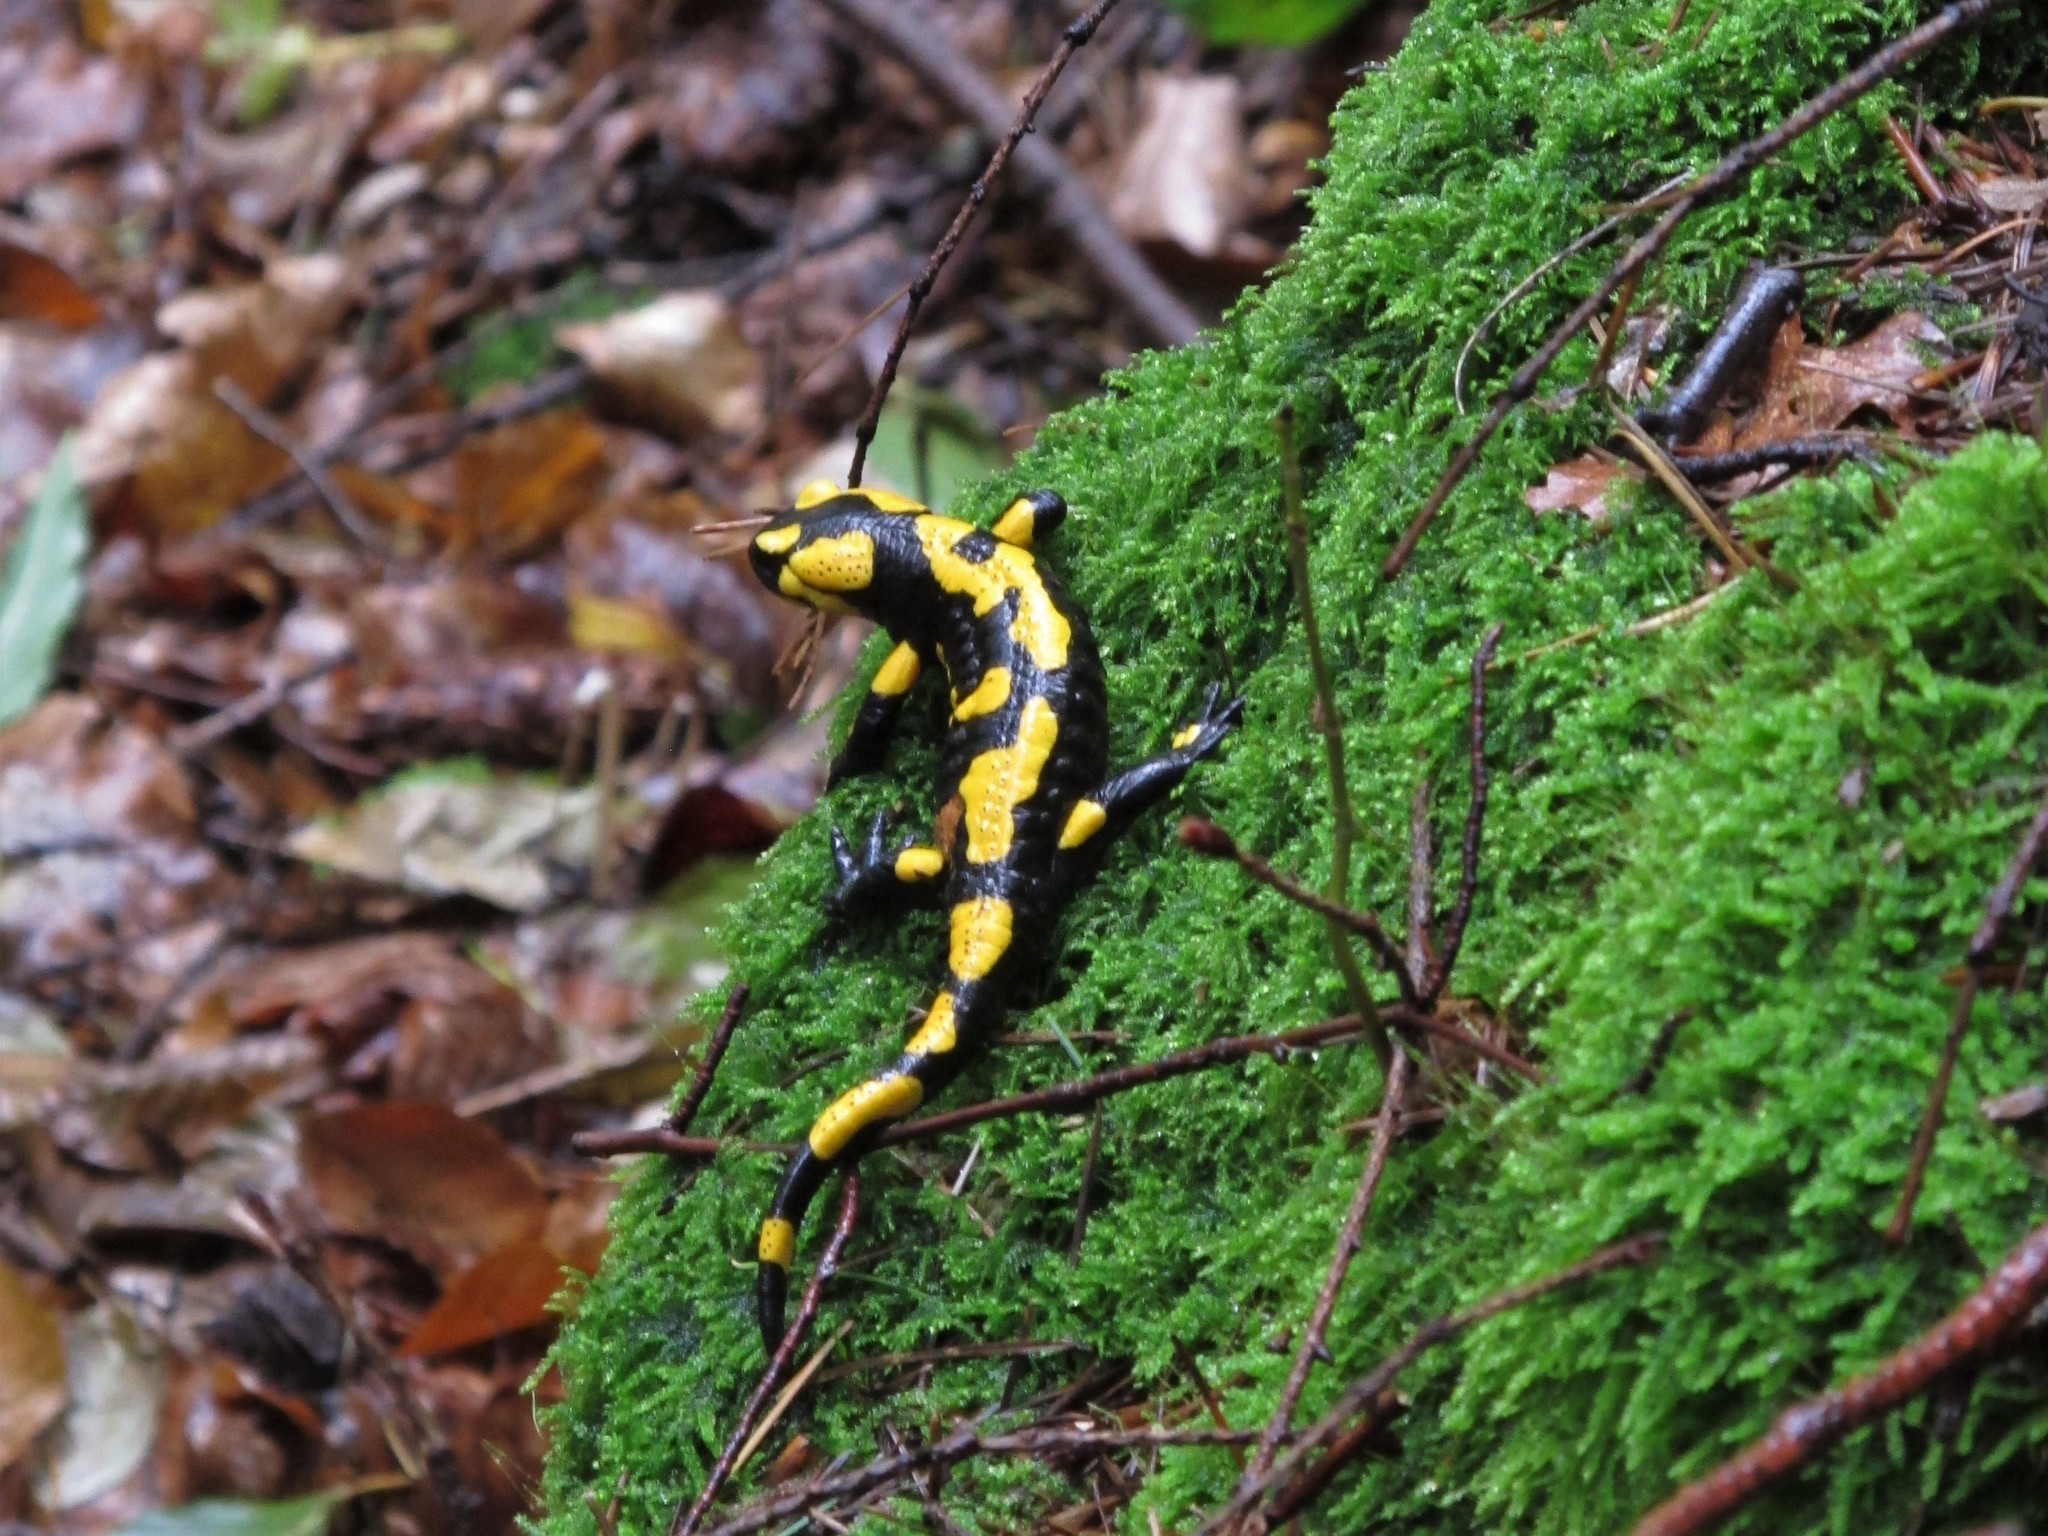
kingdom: Animalia
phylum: Chordata
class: Amphibia
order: Caudata
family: Salamandridae
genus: Salamandra
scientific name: Salamandra salamandra
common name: Fire salamander
